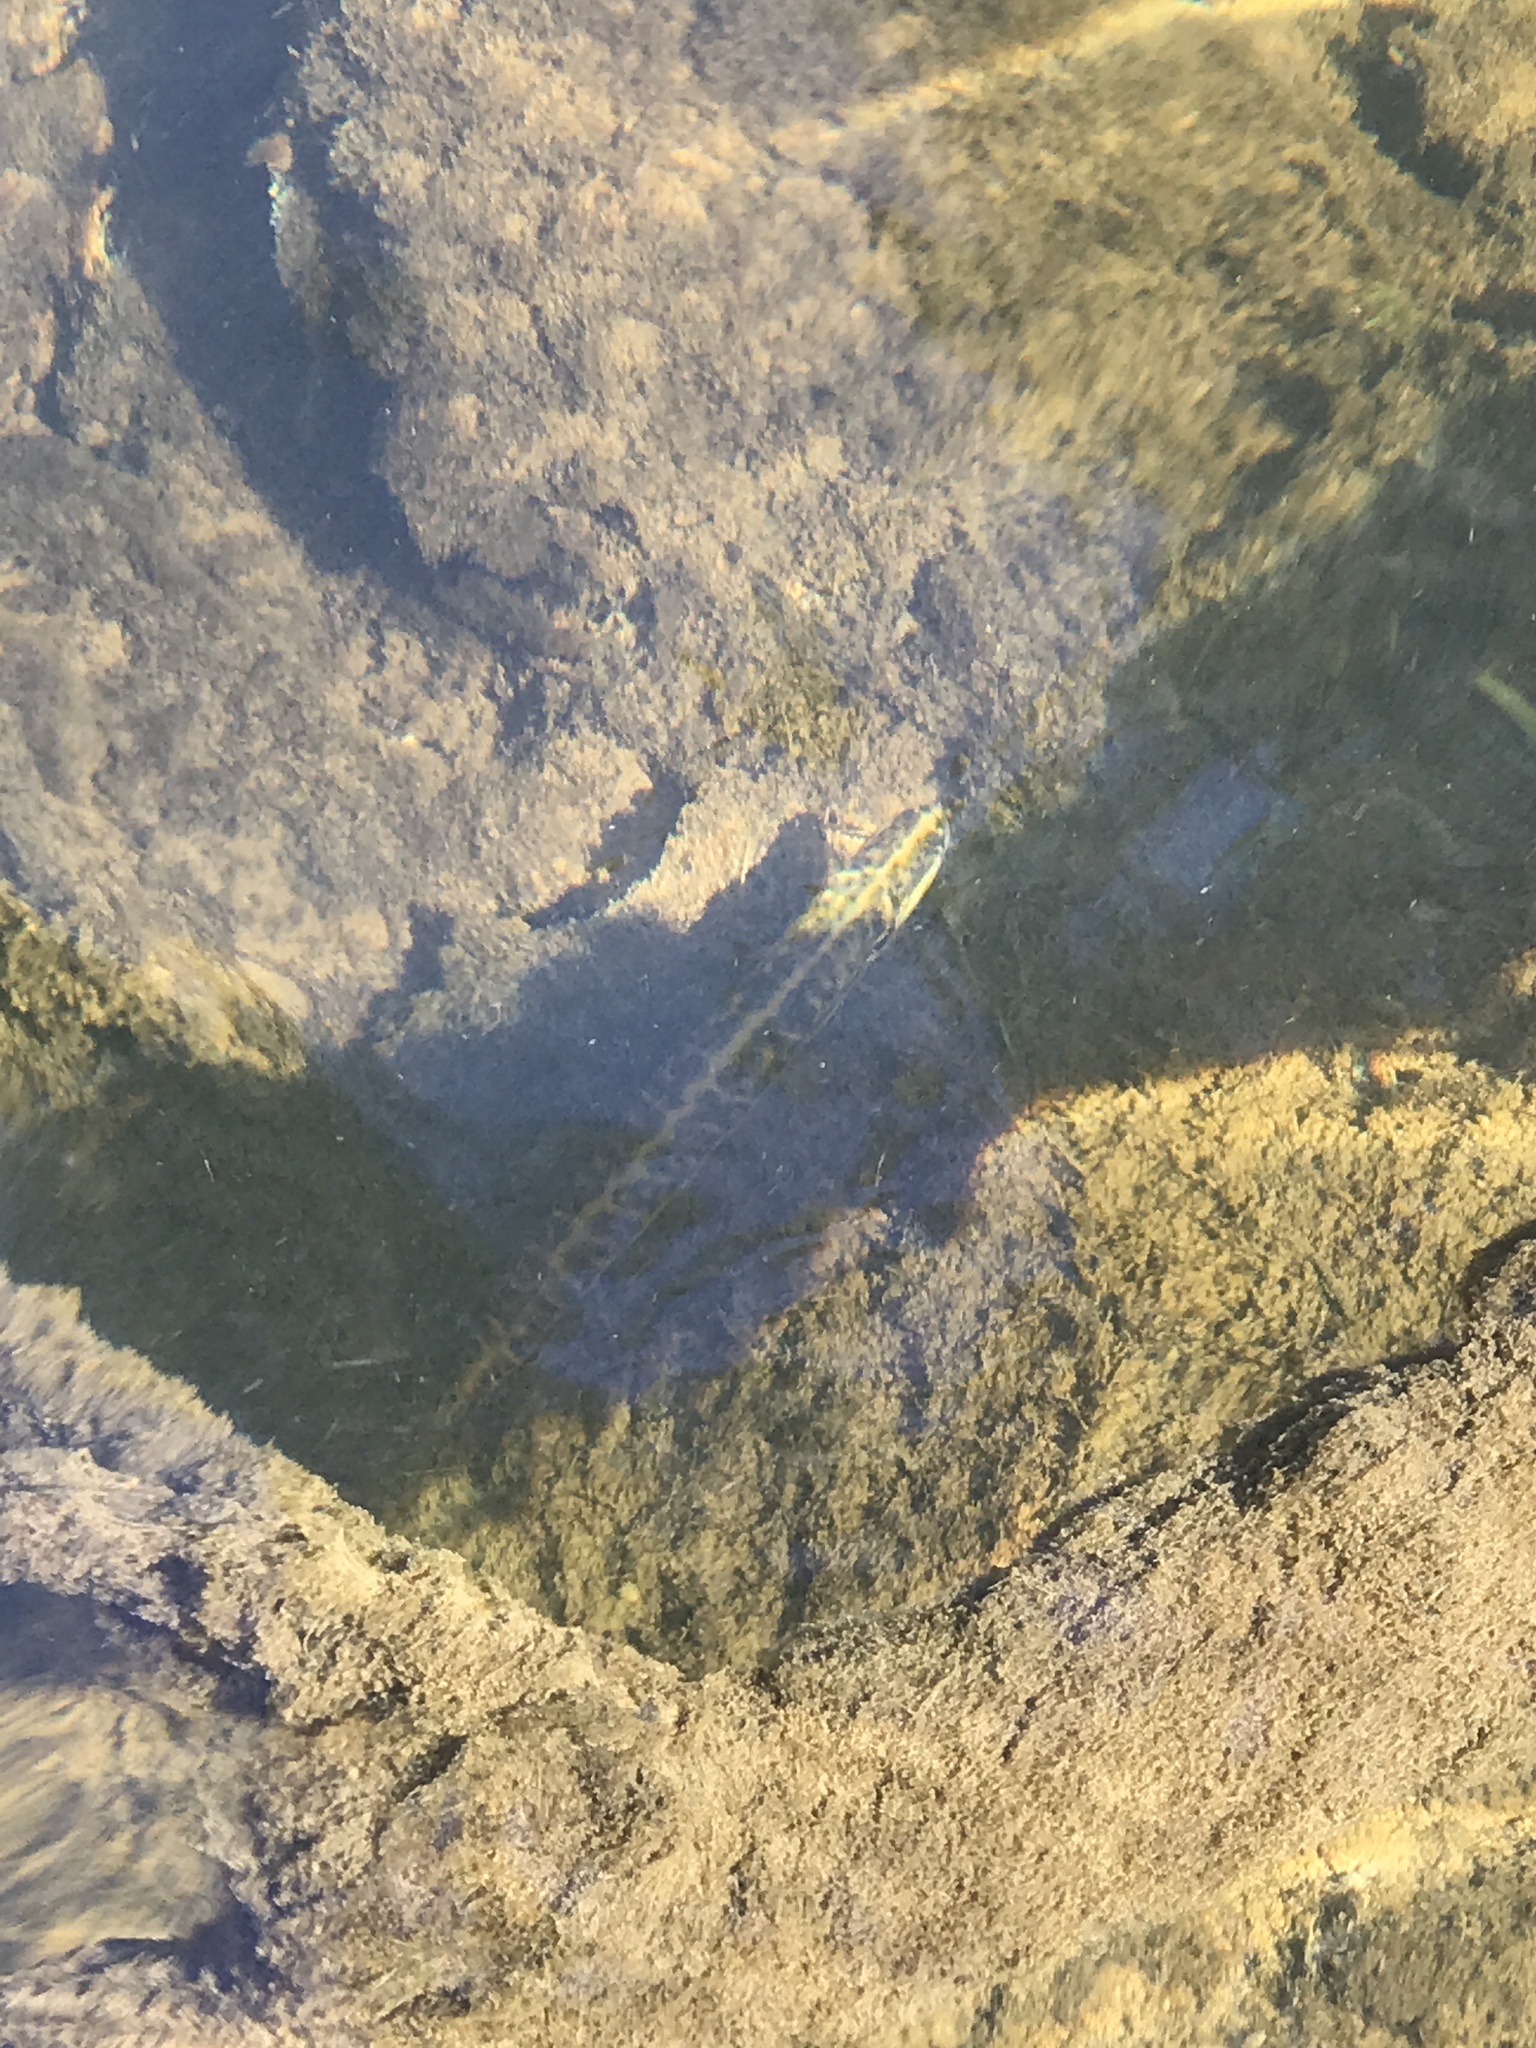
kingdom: Animalia
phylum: Chordata
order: Esociformes
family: Esocidae
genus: Esox
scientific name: Esox americanus
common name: Redfin pickerel
